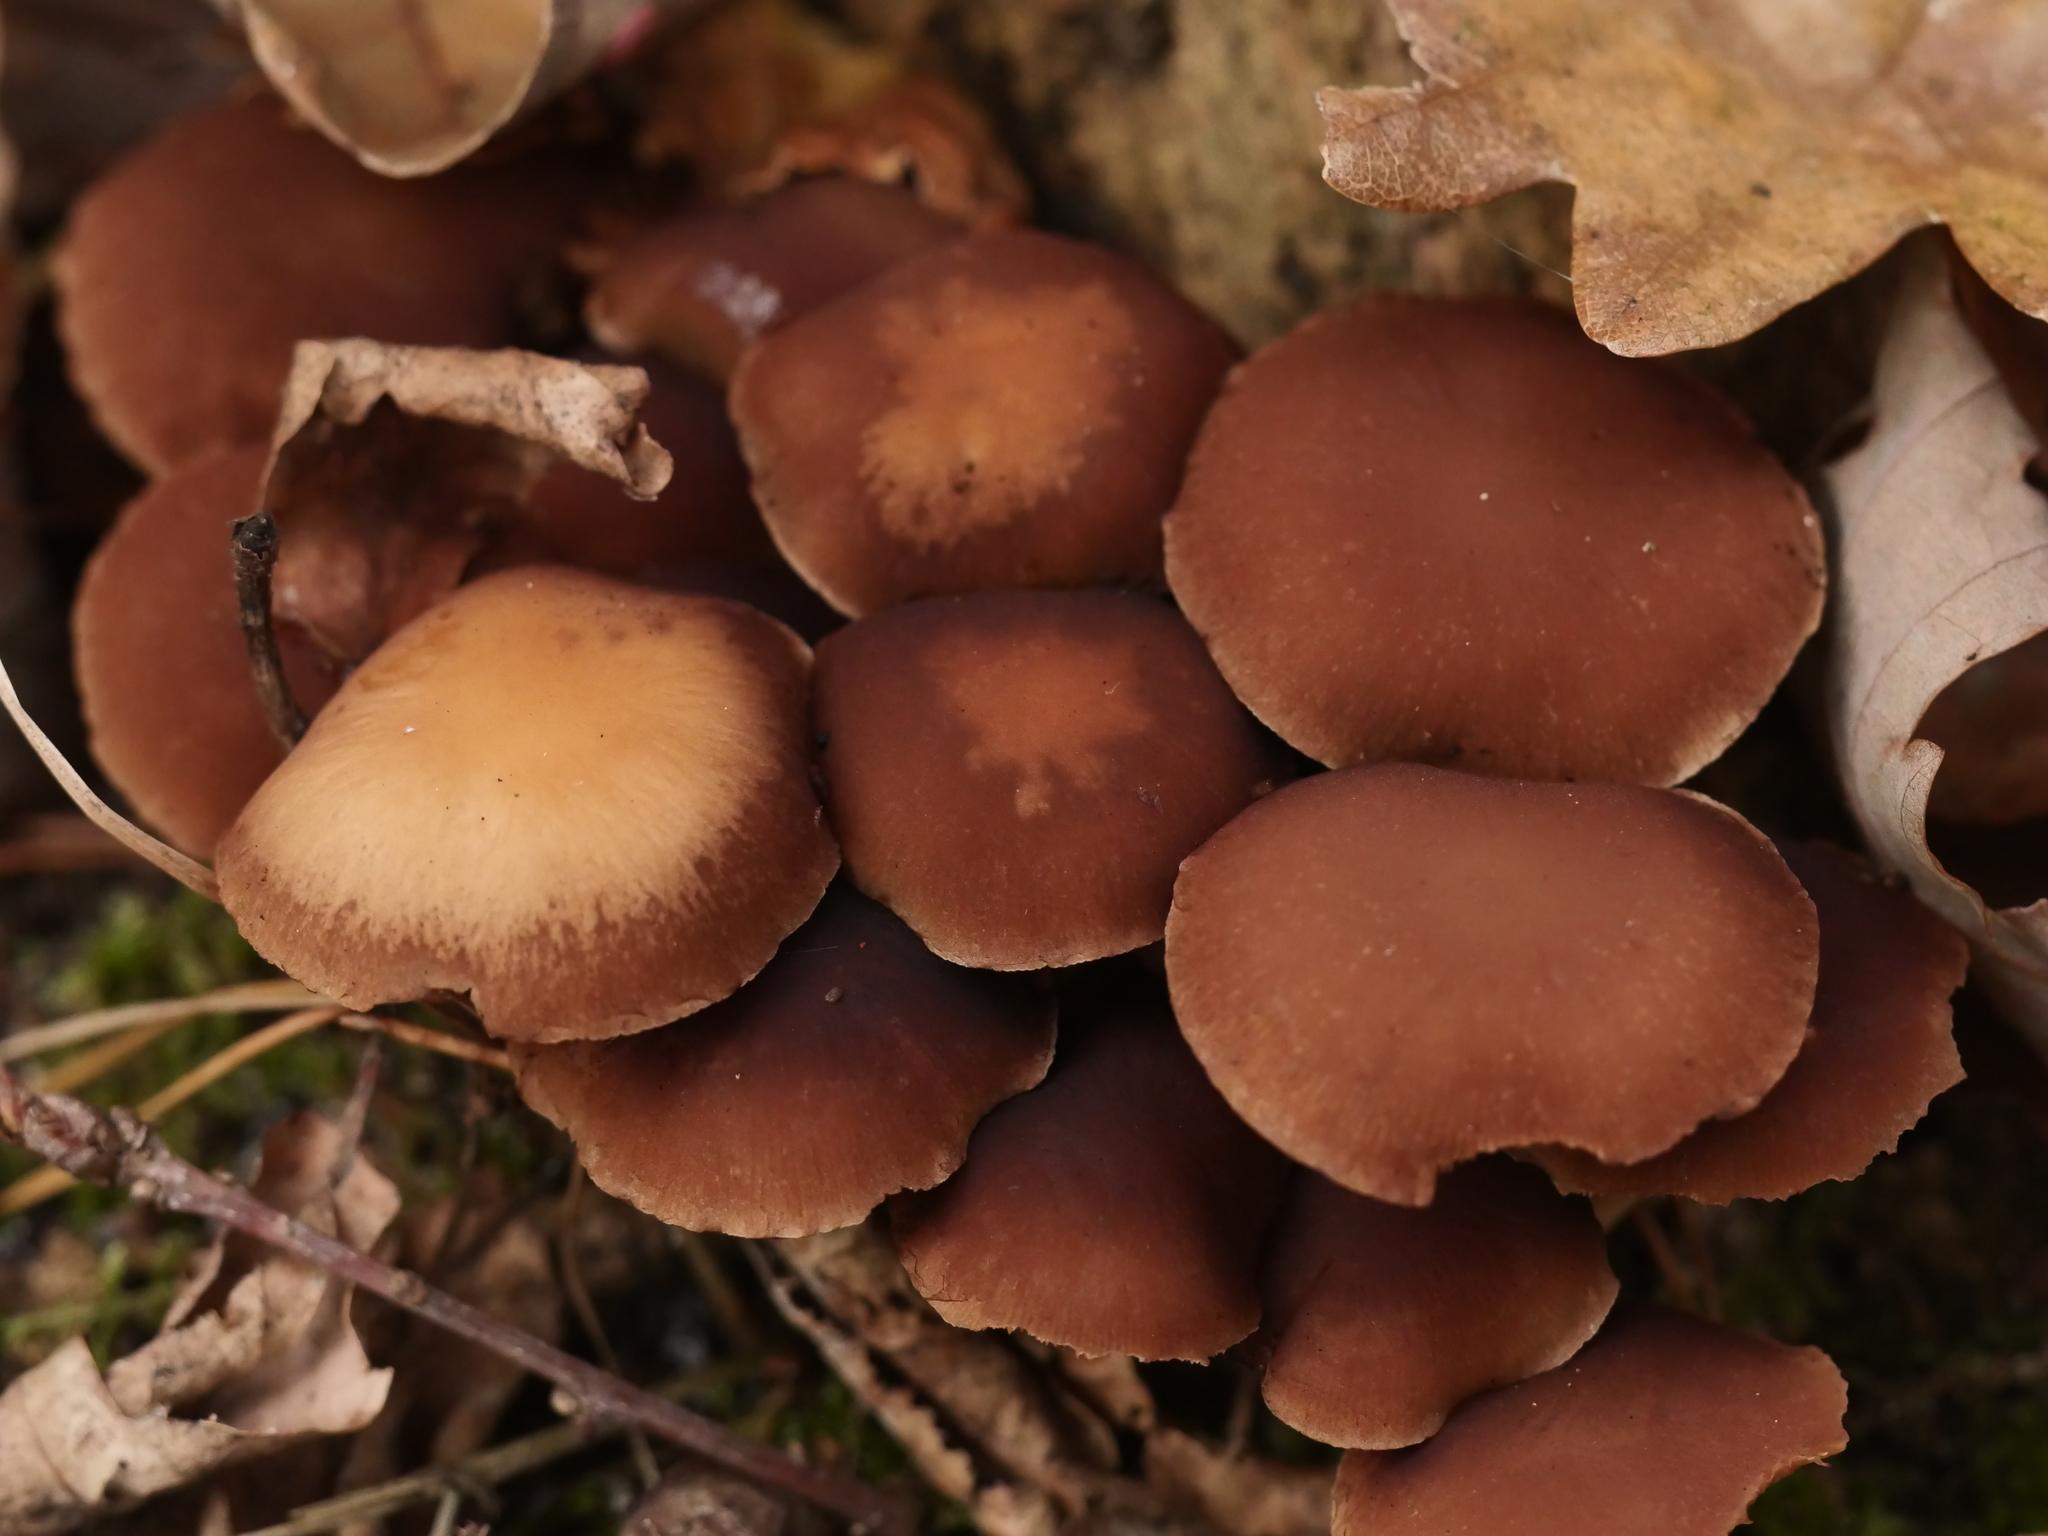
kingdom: Fungi
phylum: Basidiomycota
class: Agaricomycetes
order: Agaricales
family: Strophariaceae
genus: Kuehneromyces
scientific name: Kuehneromyces mutabilis
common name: Sheathed woodtuft
